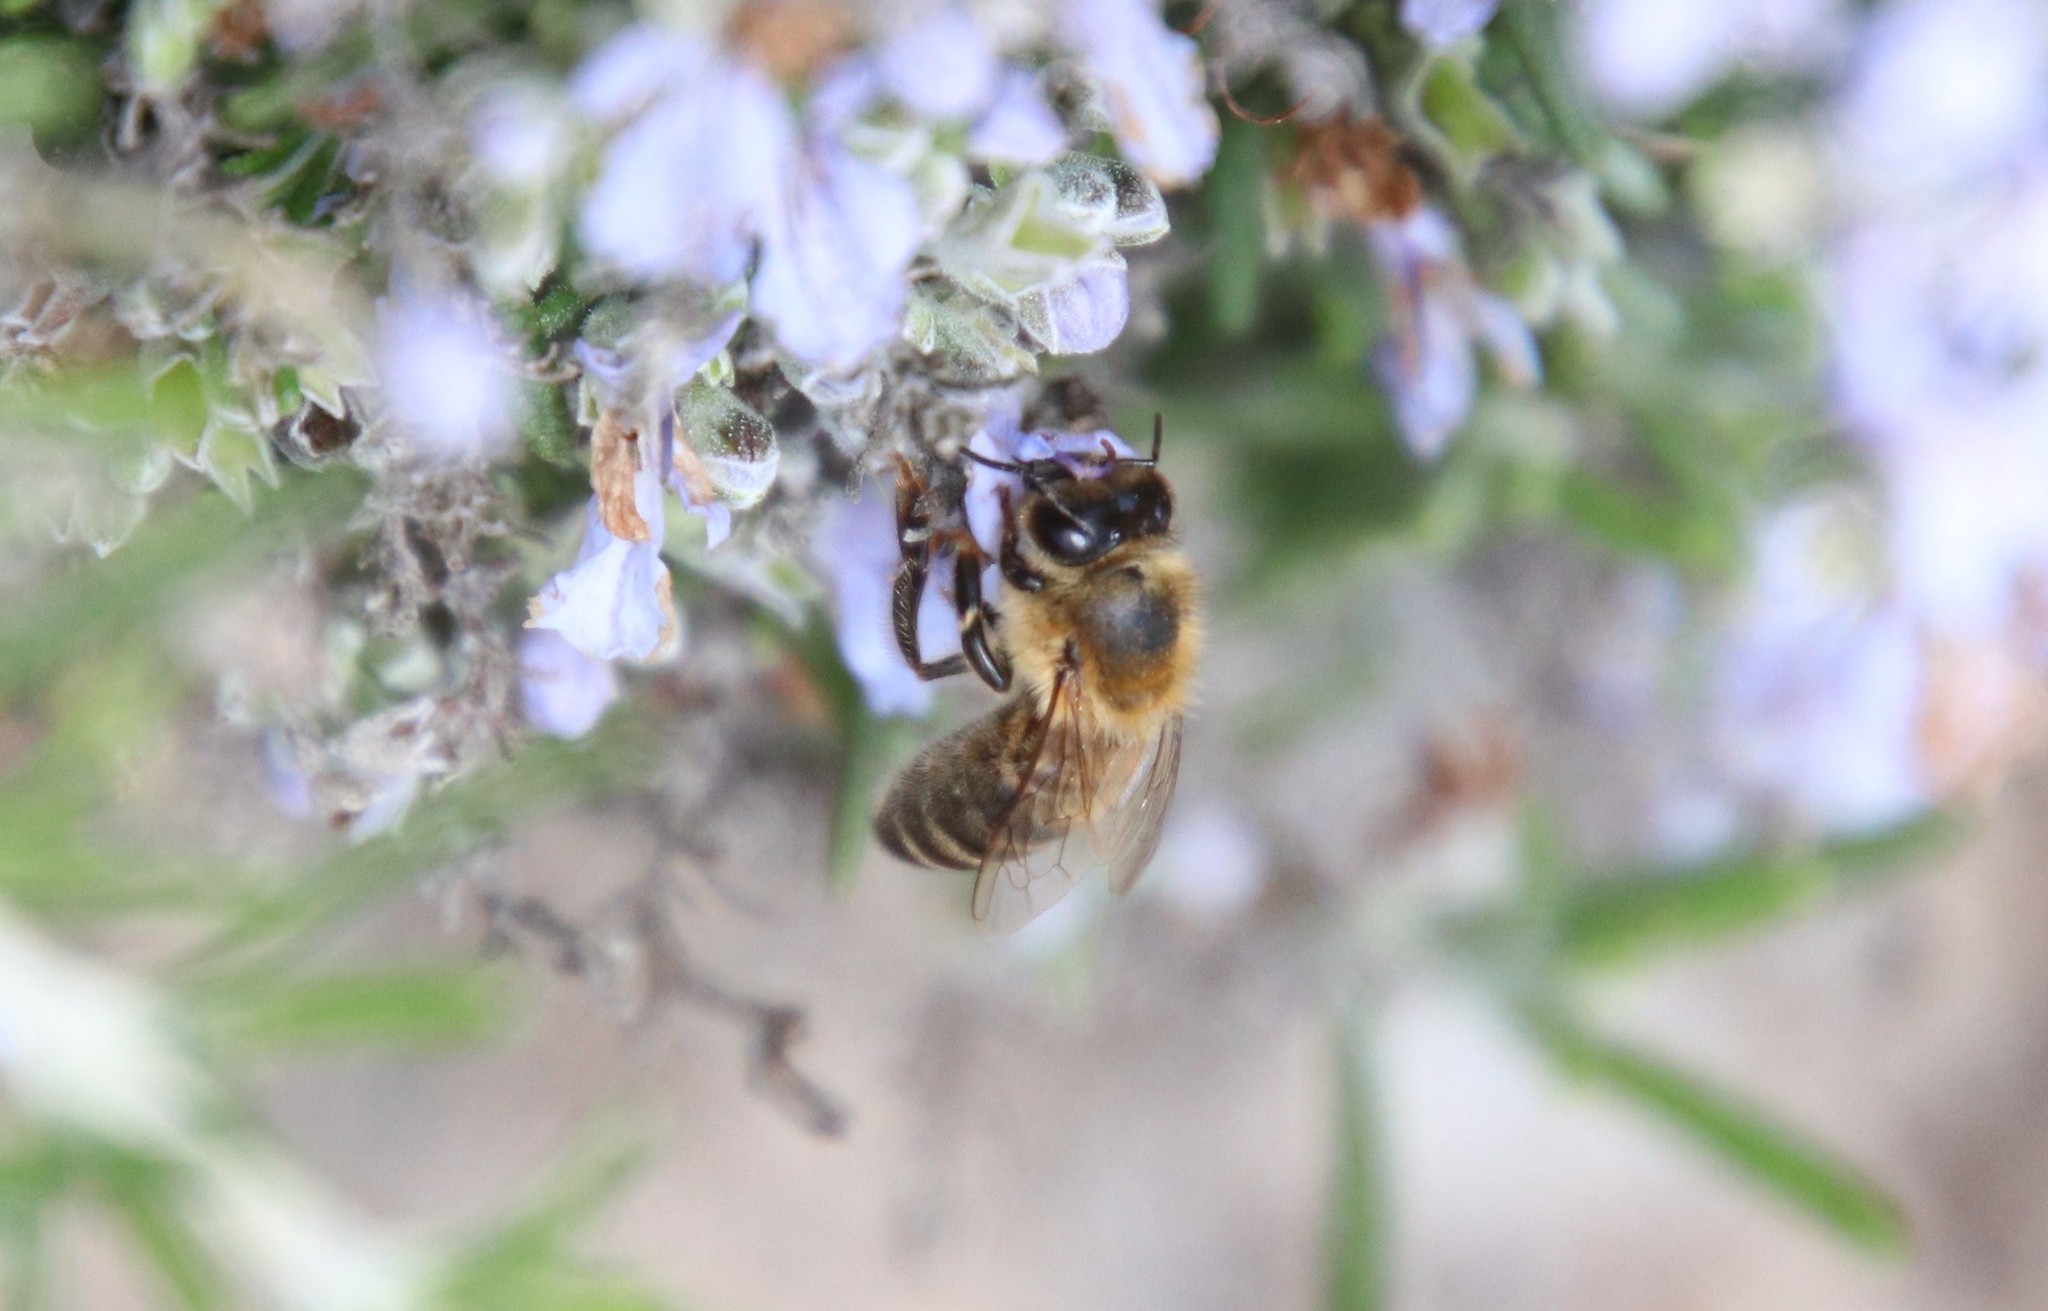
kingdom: Animalia
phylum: Arthropoda
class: Insecta
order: Hymenoptera
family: Apidae
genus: Apis
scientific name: Apis mellifera
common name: Honey bee
